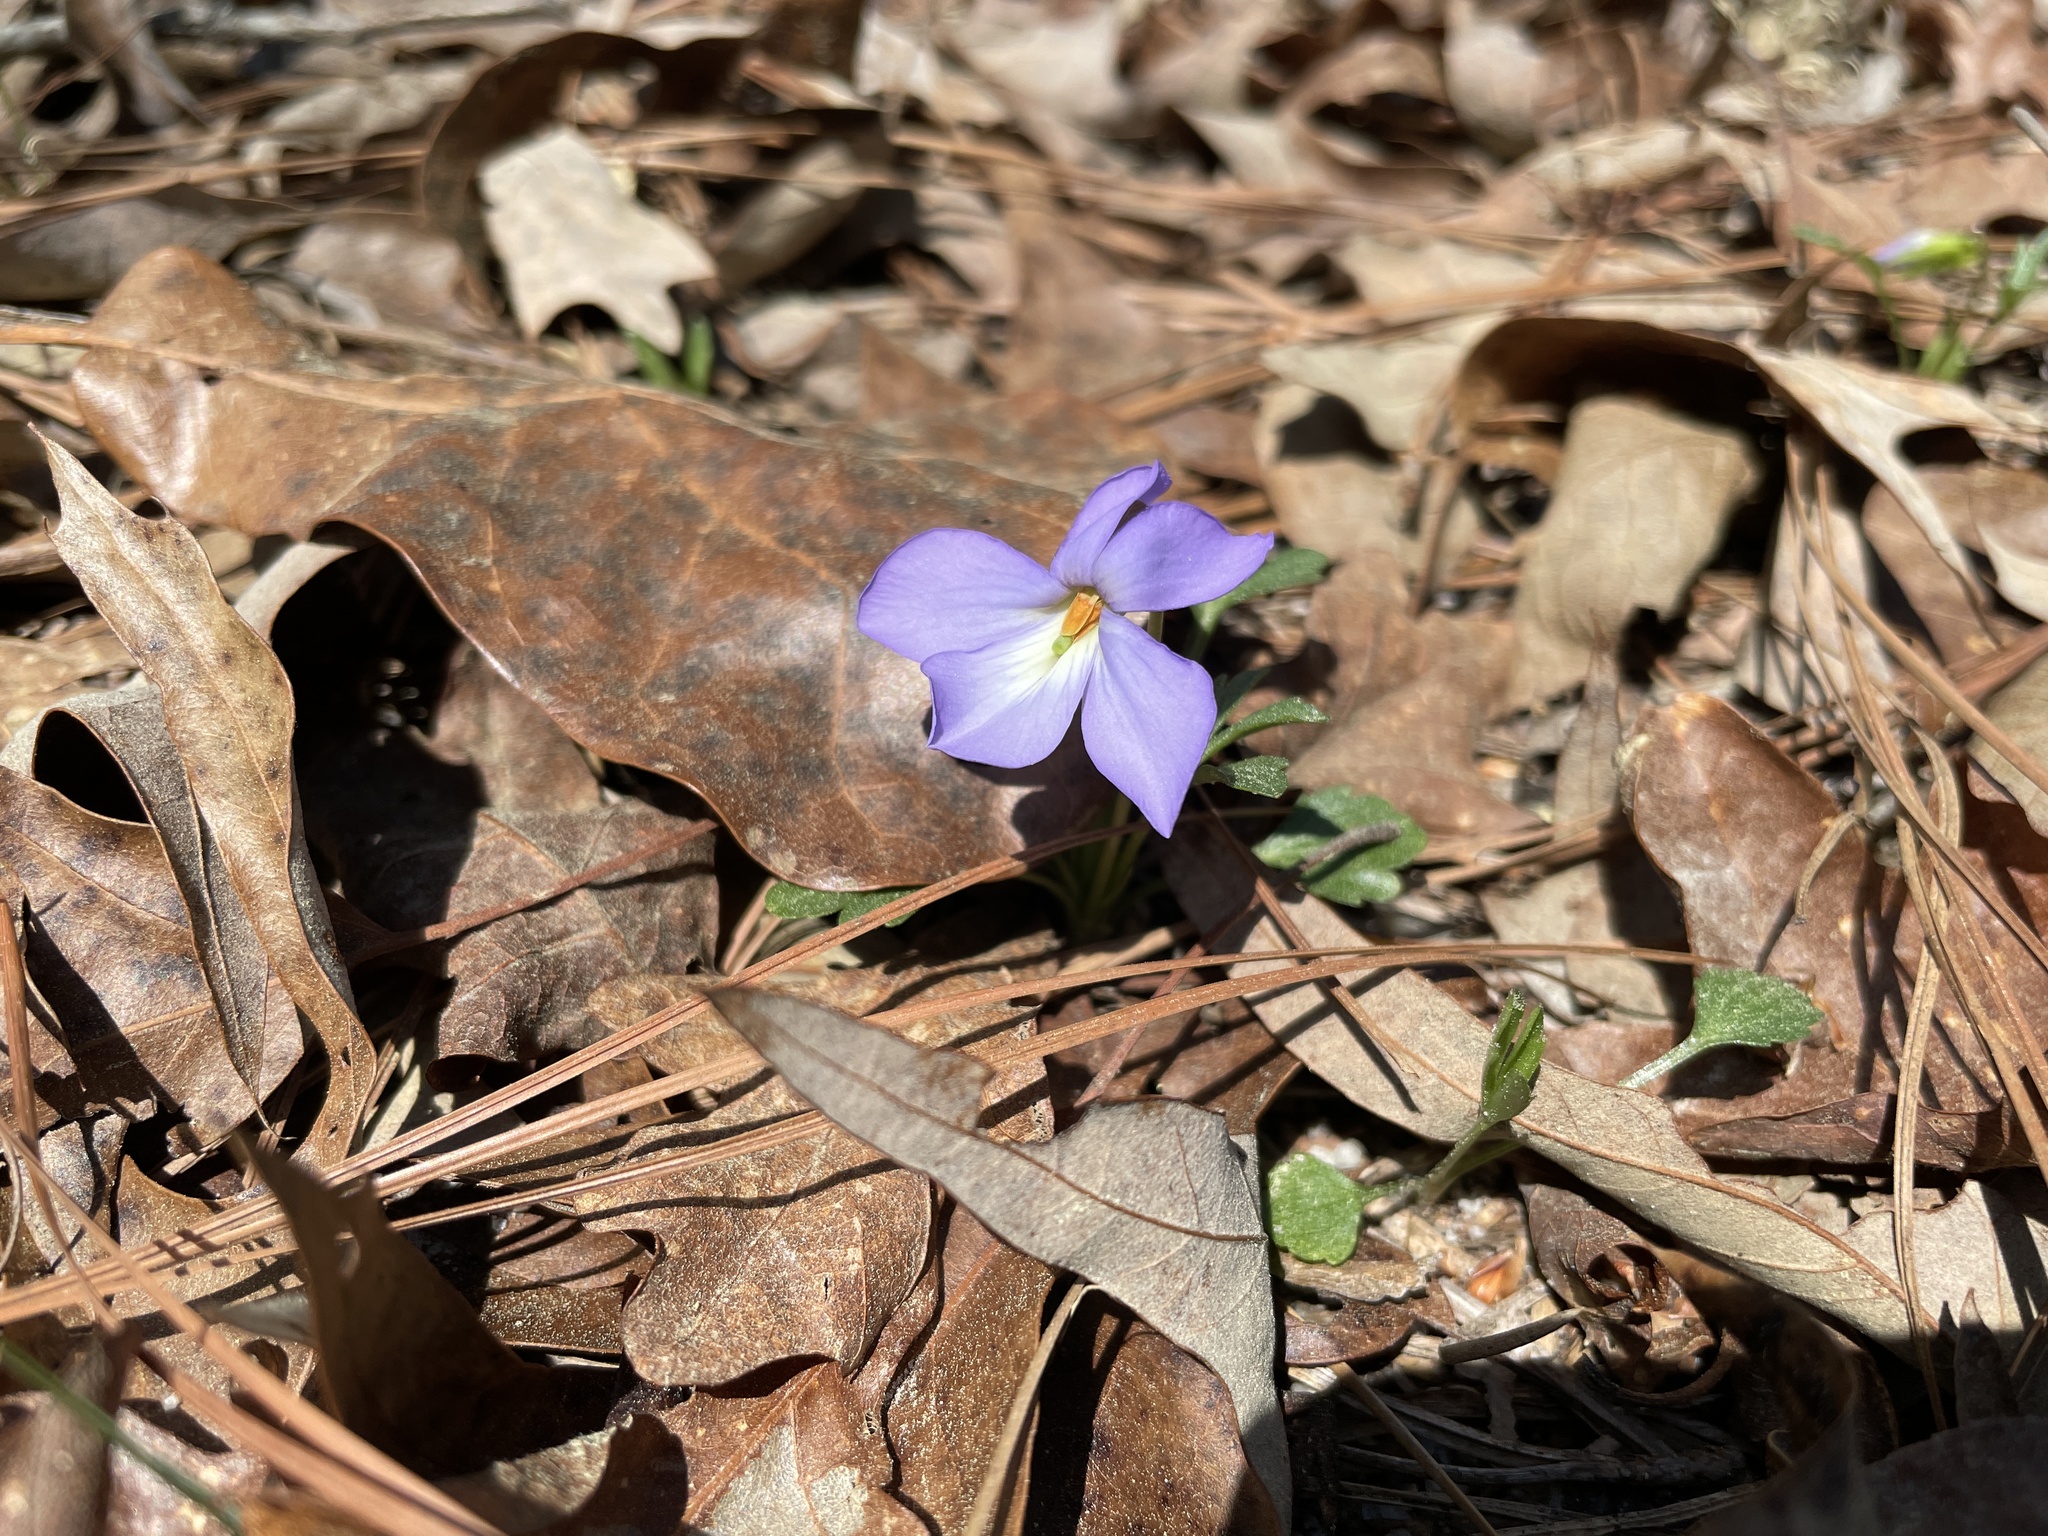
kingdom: Plantae
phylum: Tracheophyta
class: Magnoliopsida
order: Malpighiales
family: Violaceae
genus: Viola
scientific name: Viola pedata
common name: Pansy violet
